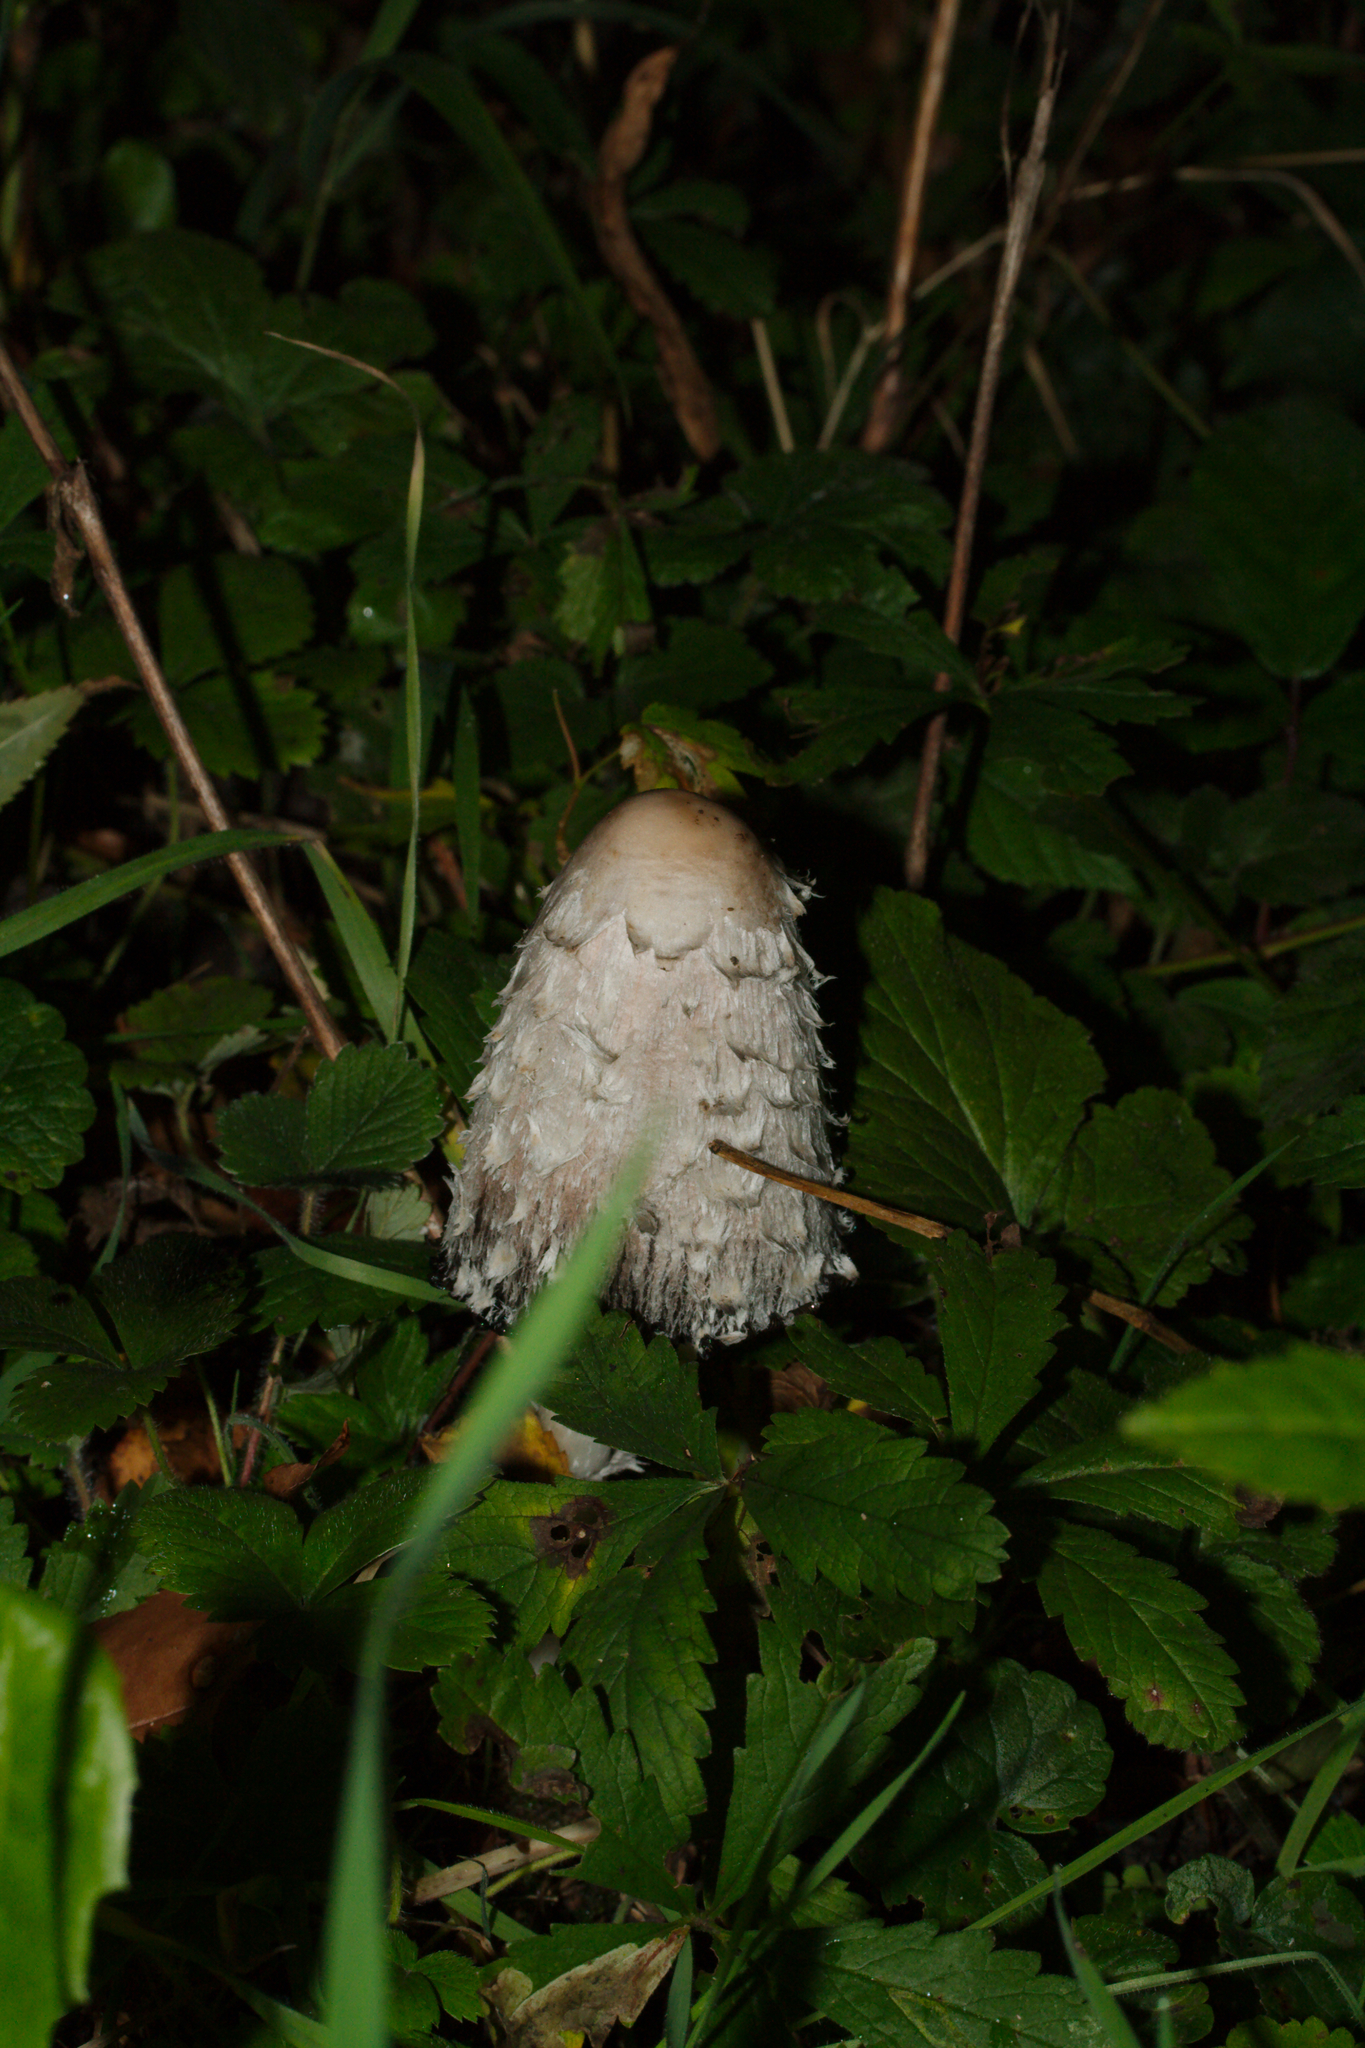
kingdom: Fungi
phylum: Basidiomycota
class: Agaricomycetes
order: Agaricales
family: Agaricaceae
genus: Coprinus
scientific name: Coprinus comatus
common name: Lawyer's wig
